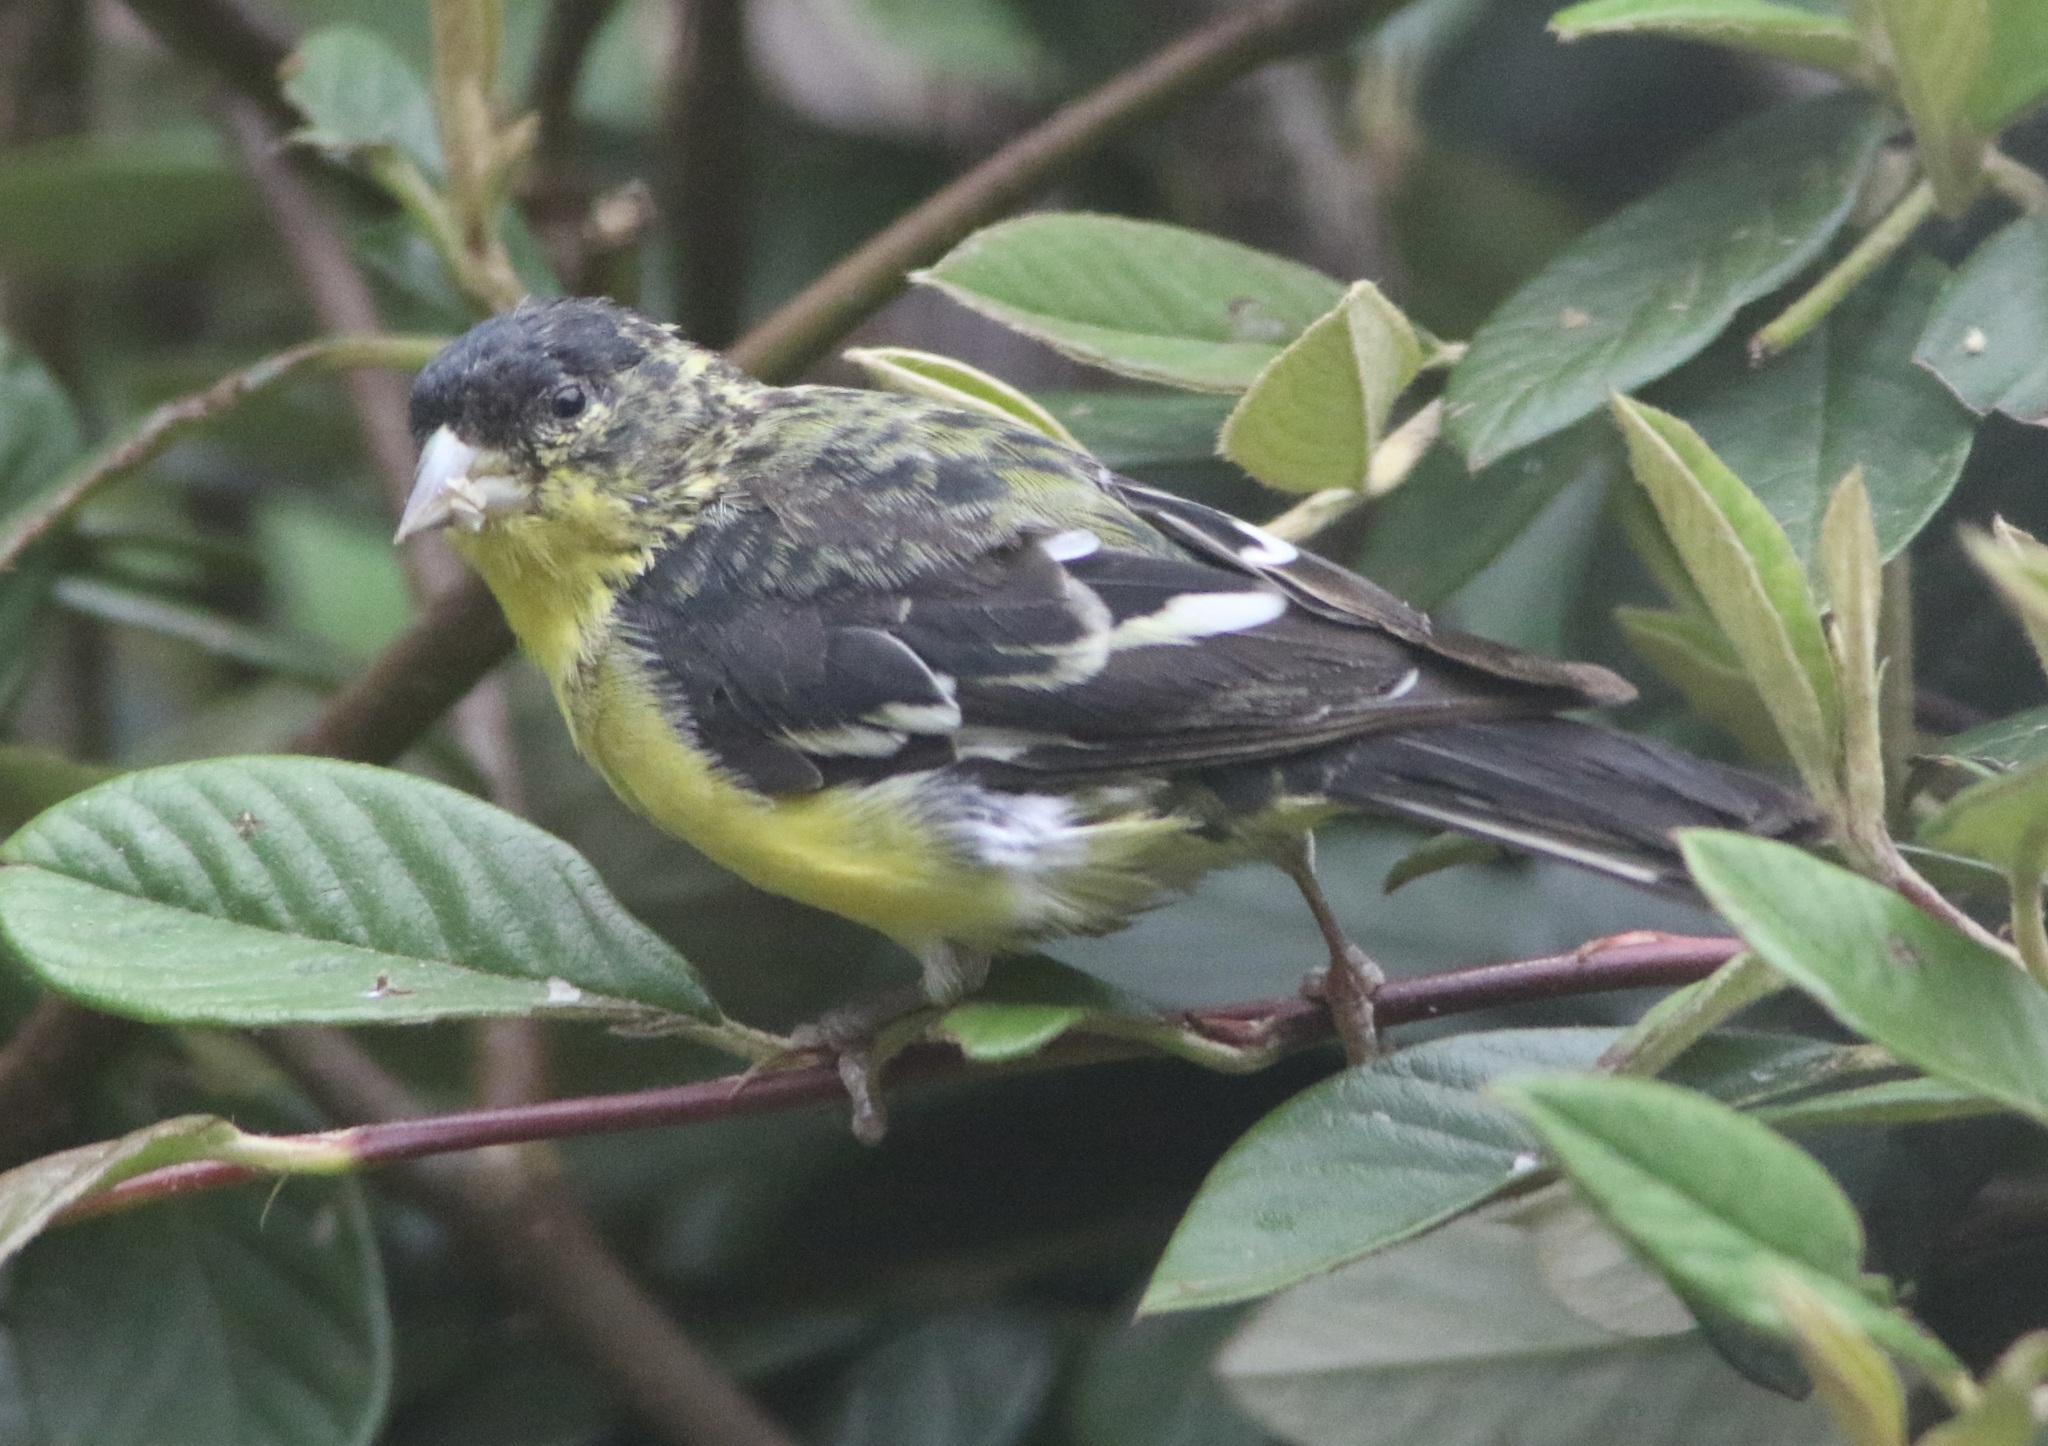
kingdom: Animalia
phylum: Chordata
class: Aves
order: Passeriformes
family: Fringillidae
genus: Spinus
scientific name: Spinus psaltria
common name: Lesser goldfinch
